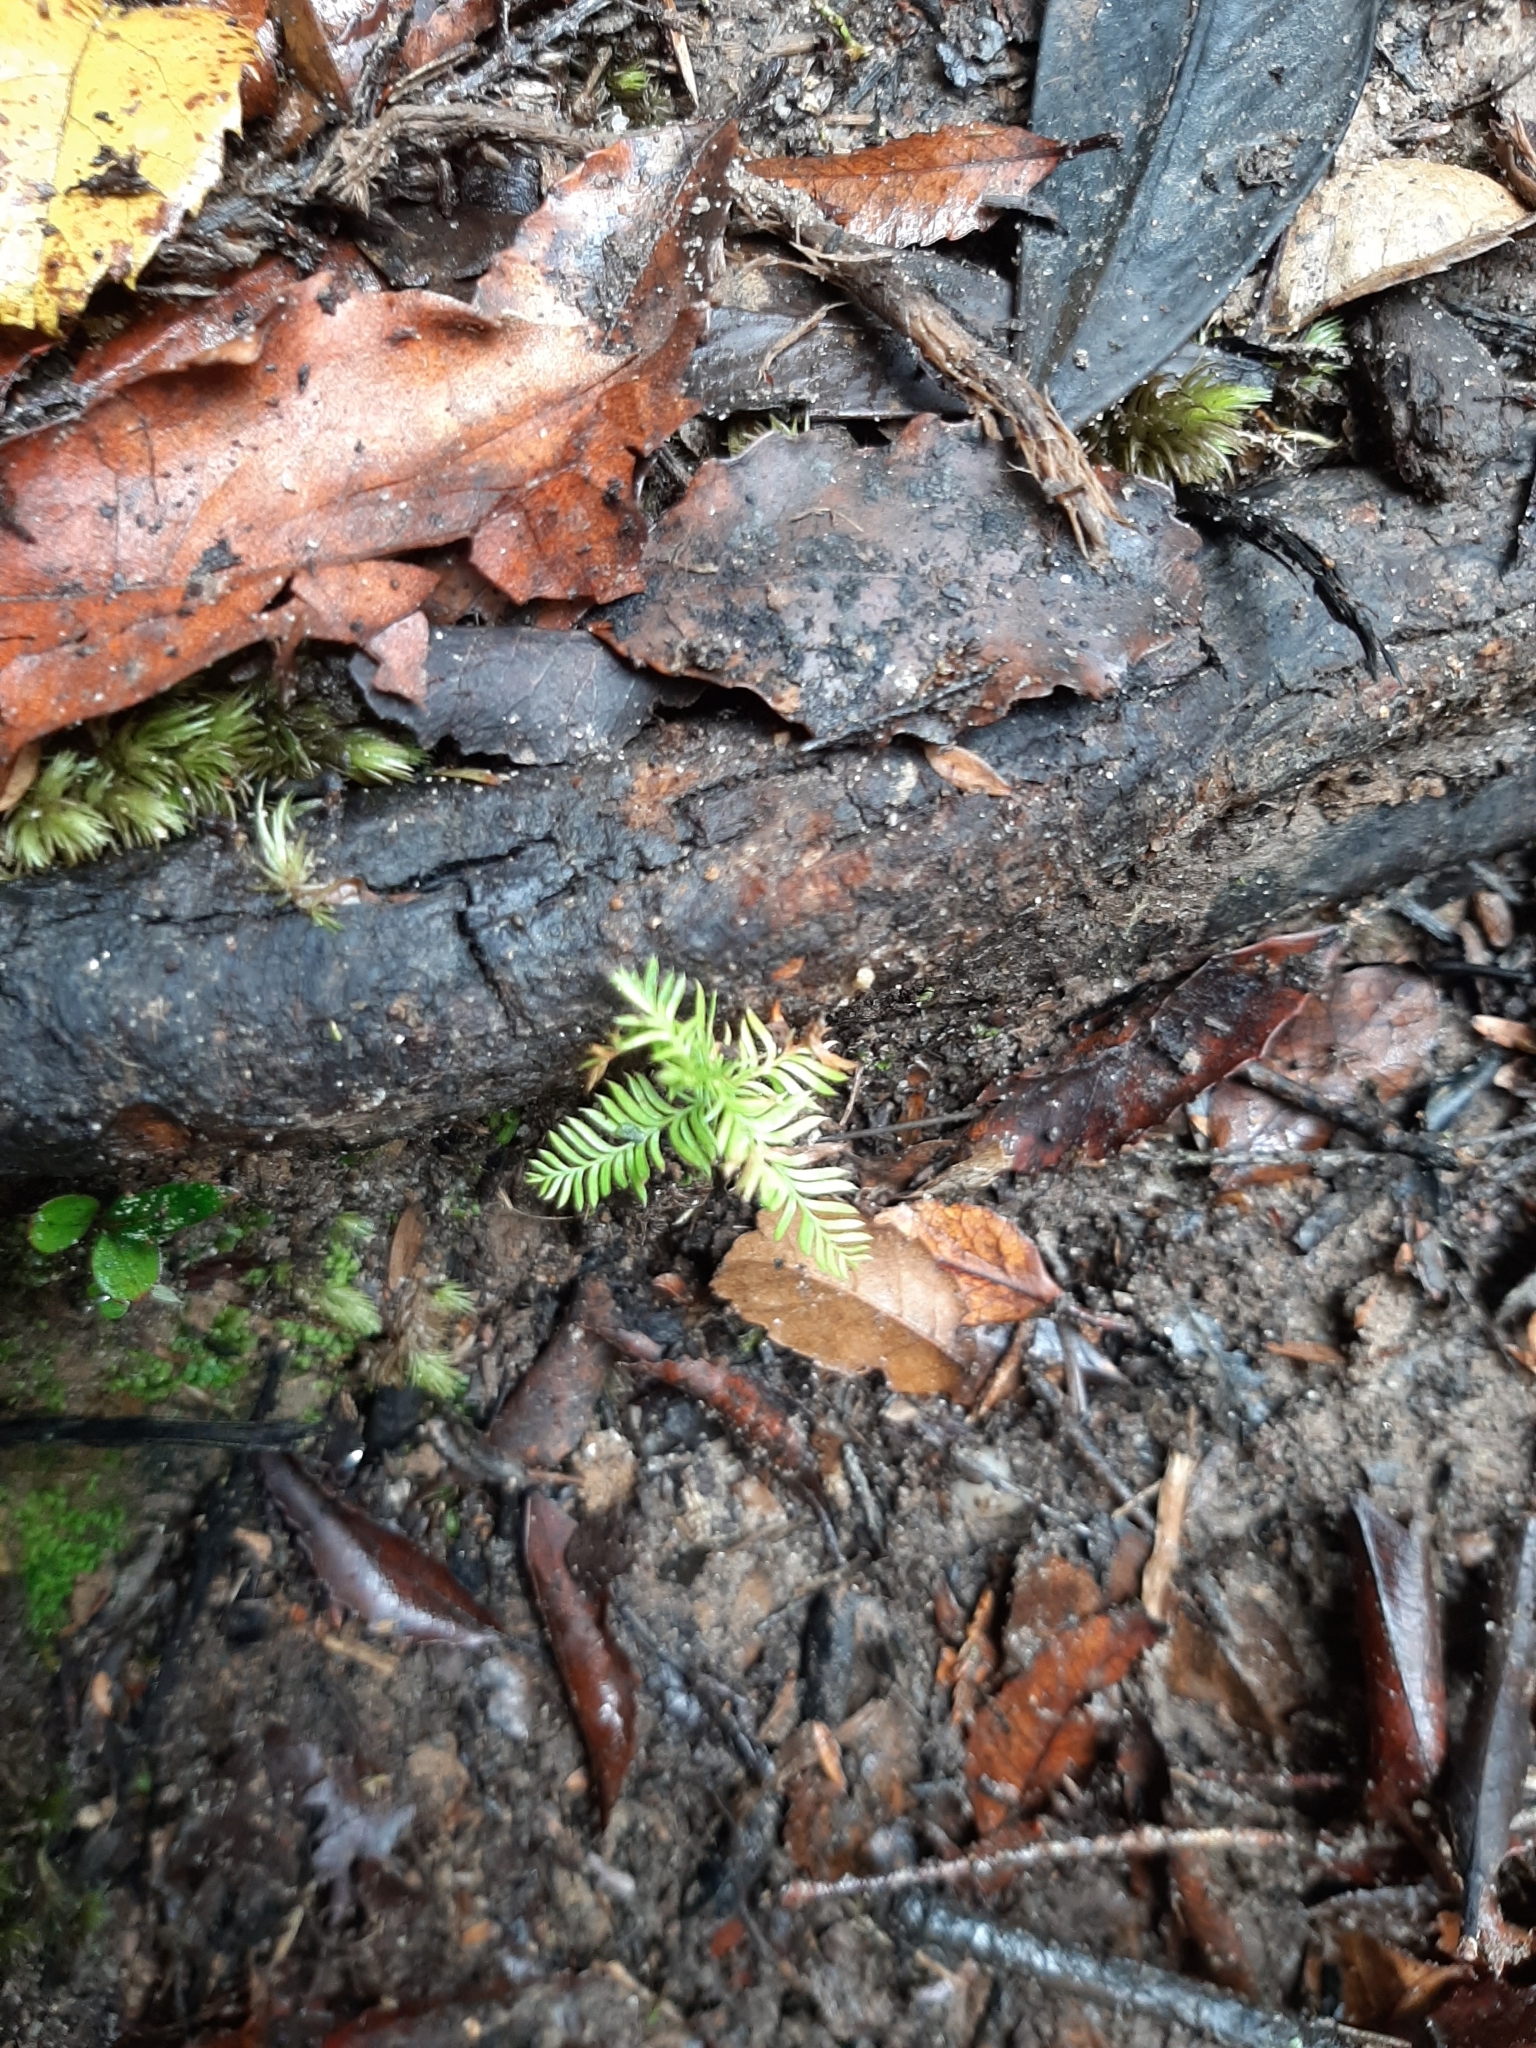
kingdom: Plantae
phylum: Tracheophyta
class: Pinopsida
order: Pinales
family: Podocarpaceae
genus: Dacrycarpus
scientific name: Dacrycarpus dacrydioides
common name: White pine
